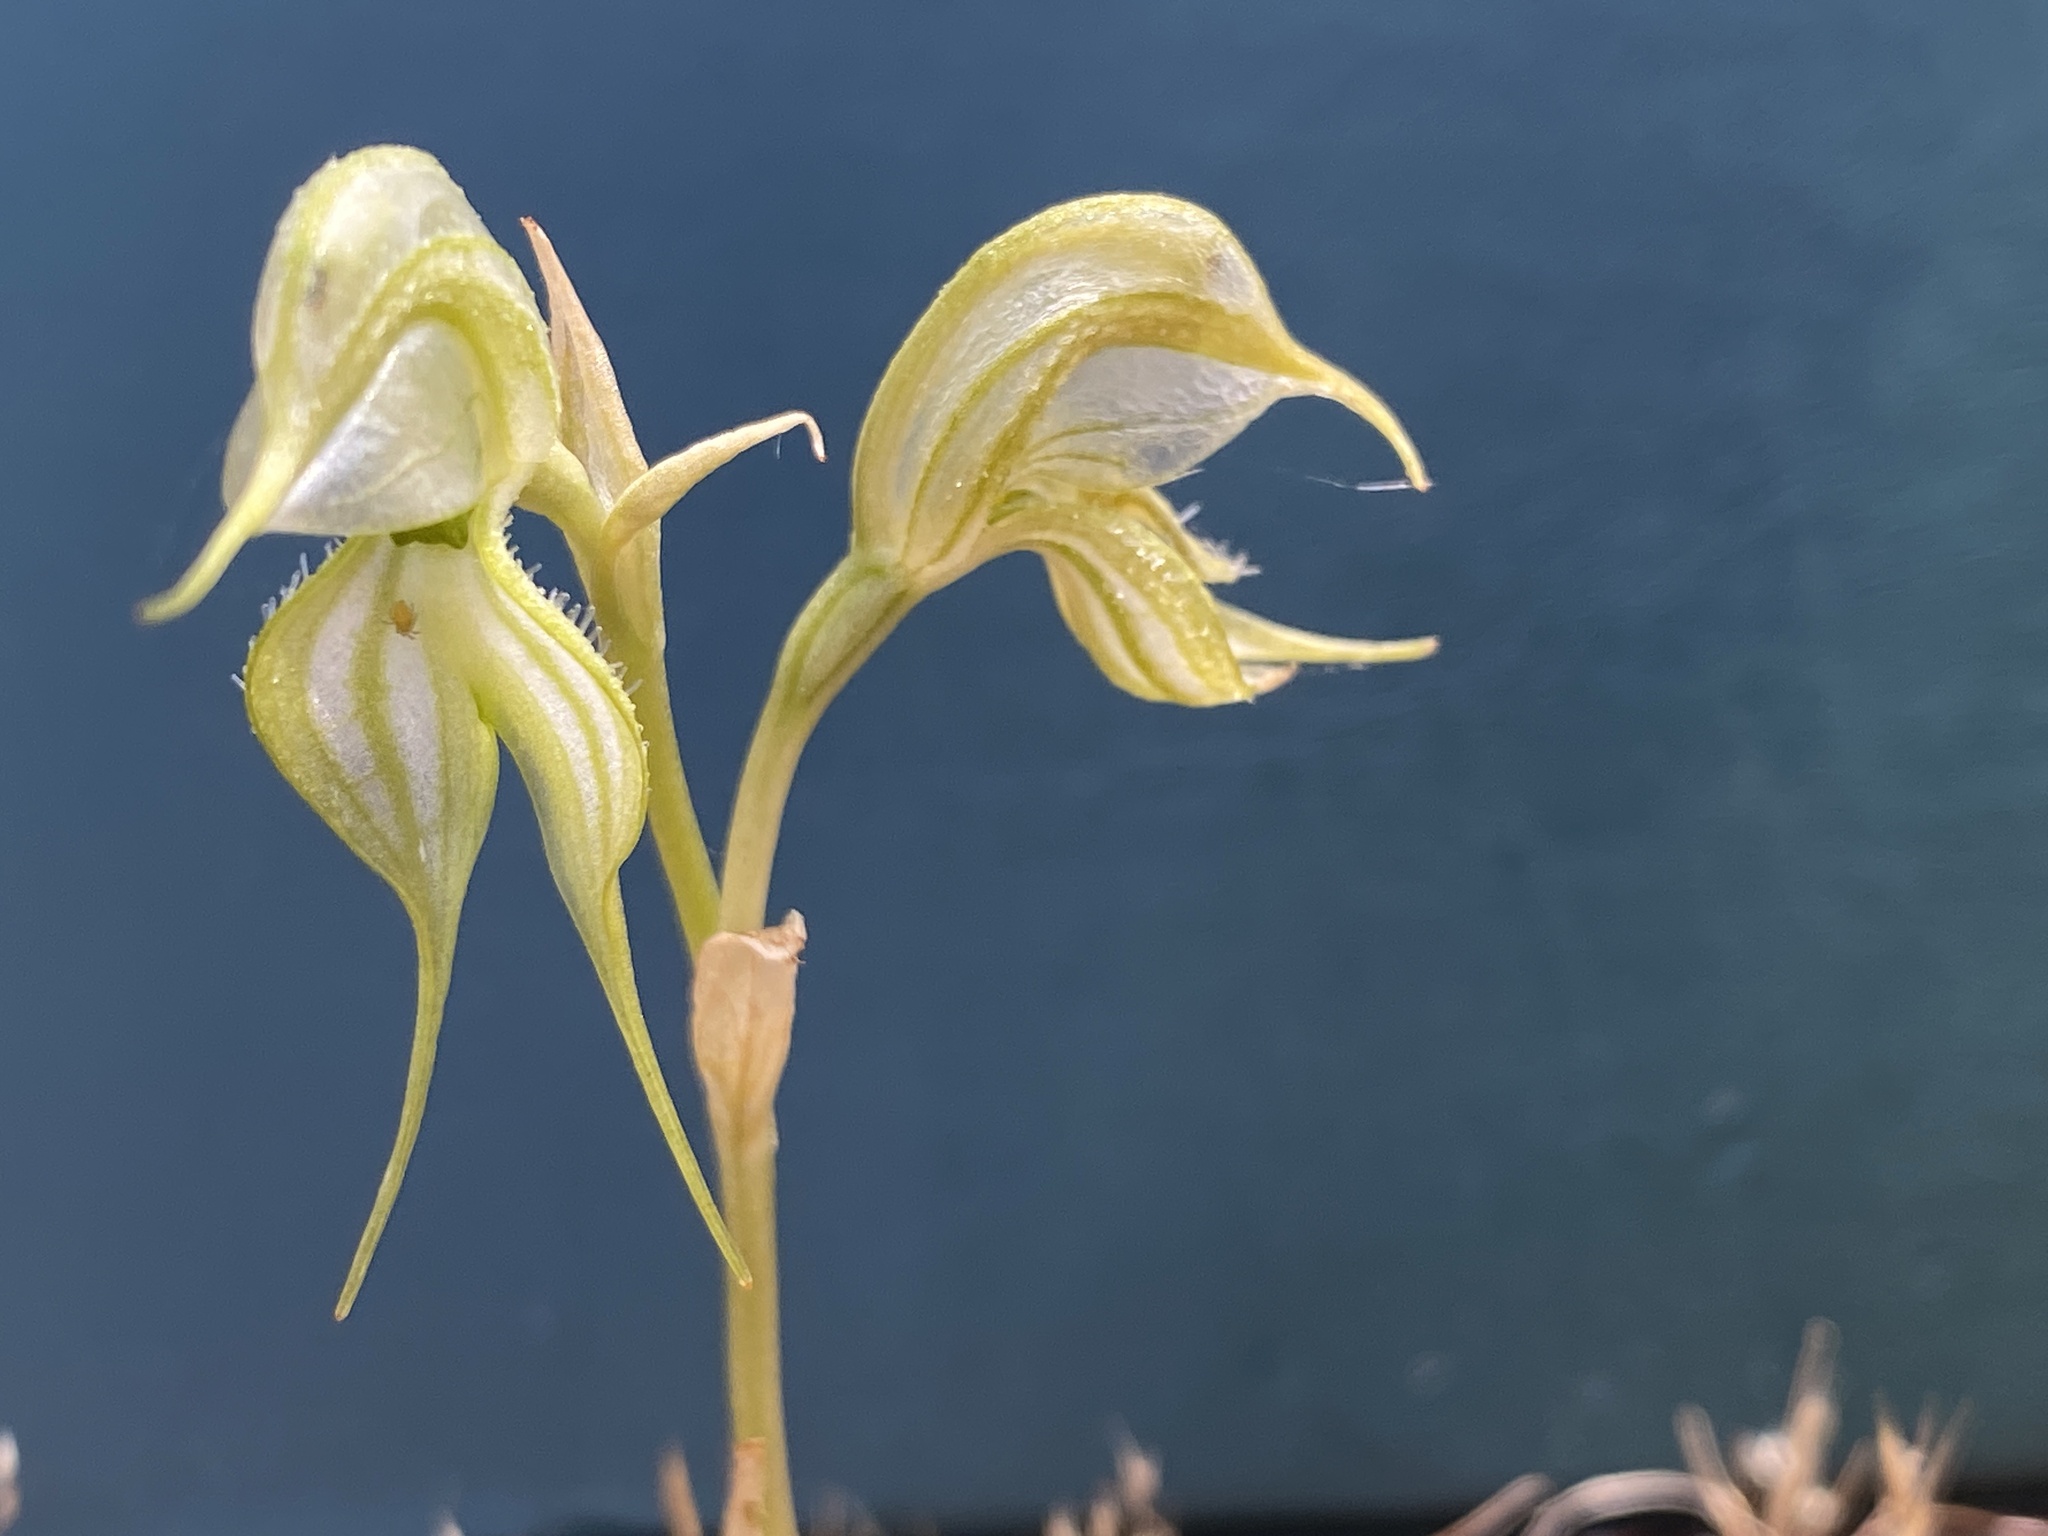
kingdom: Plantae
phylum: Tracheophyta
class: Liliopsida
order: Asparagales
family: Orchidaceae
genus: Pterostylis
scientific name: Pterostylis psammophilus
